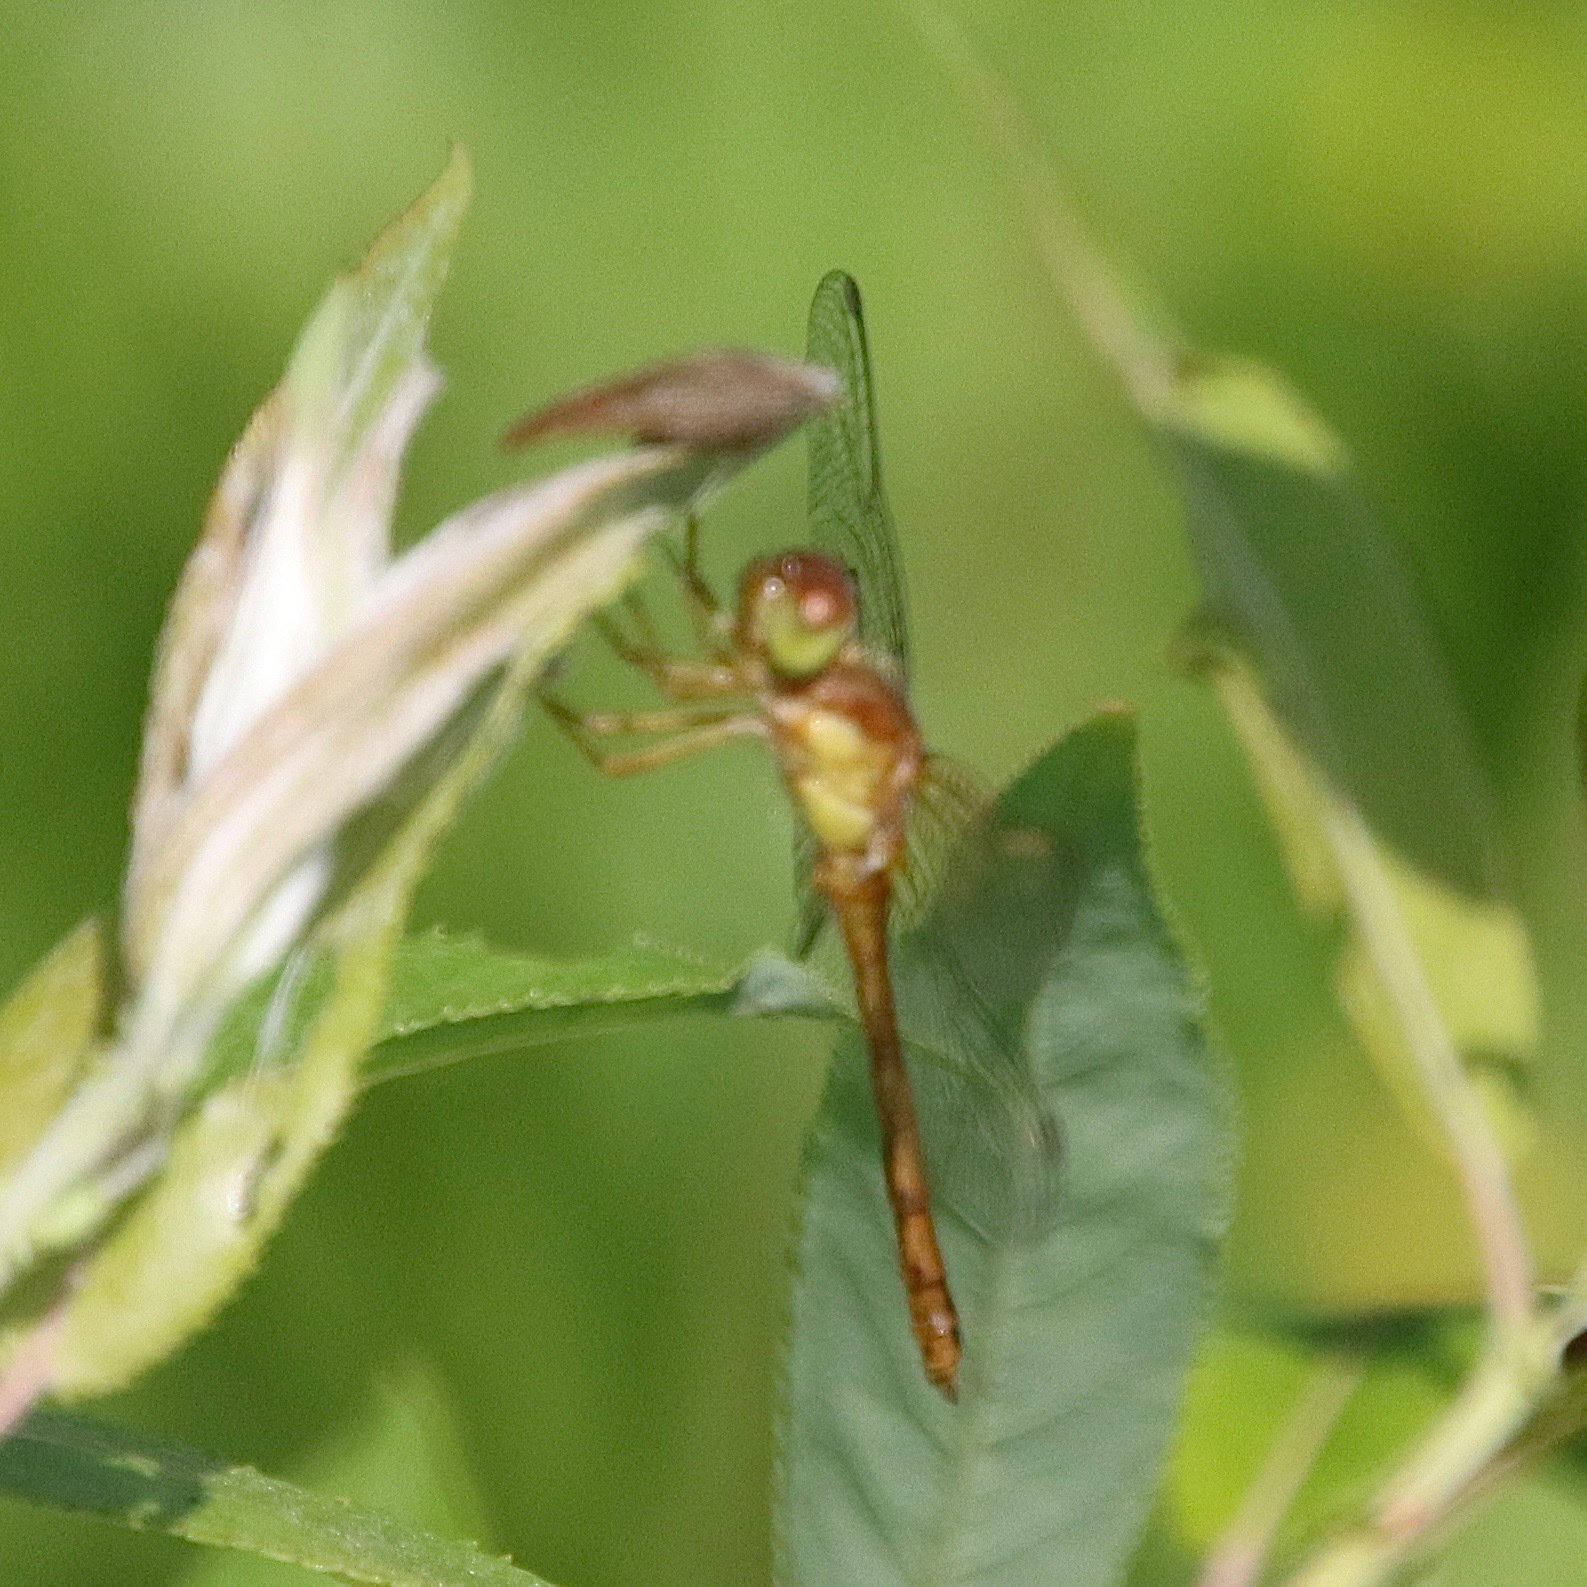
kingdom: Animalia
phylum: Arthropoda
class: Insecta
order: Odonata
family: Libellulidae
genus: Sympetrum
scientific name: Sympetrum vicinum
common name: Autumn meadowhawk
